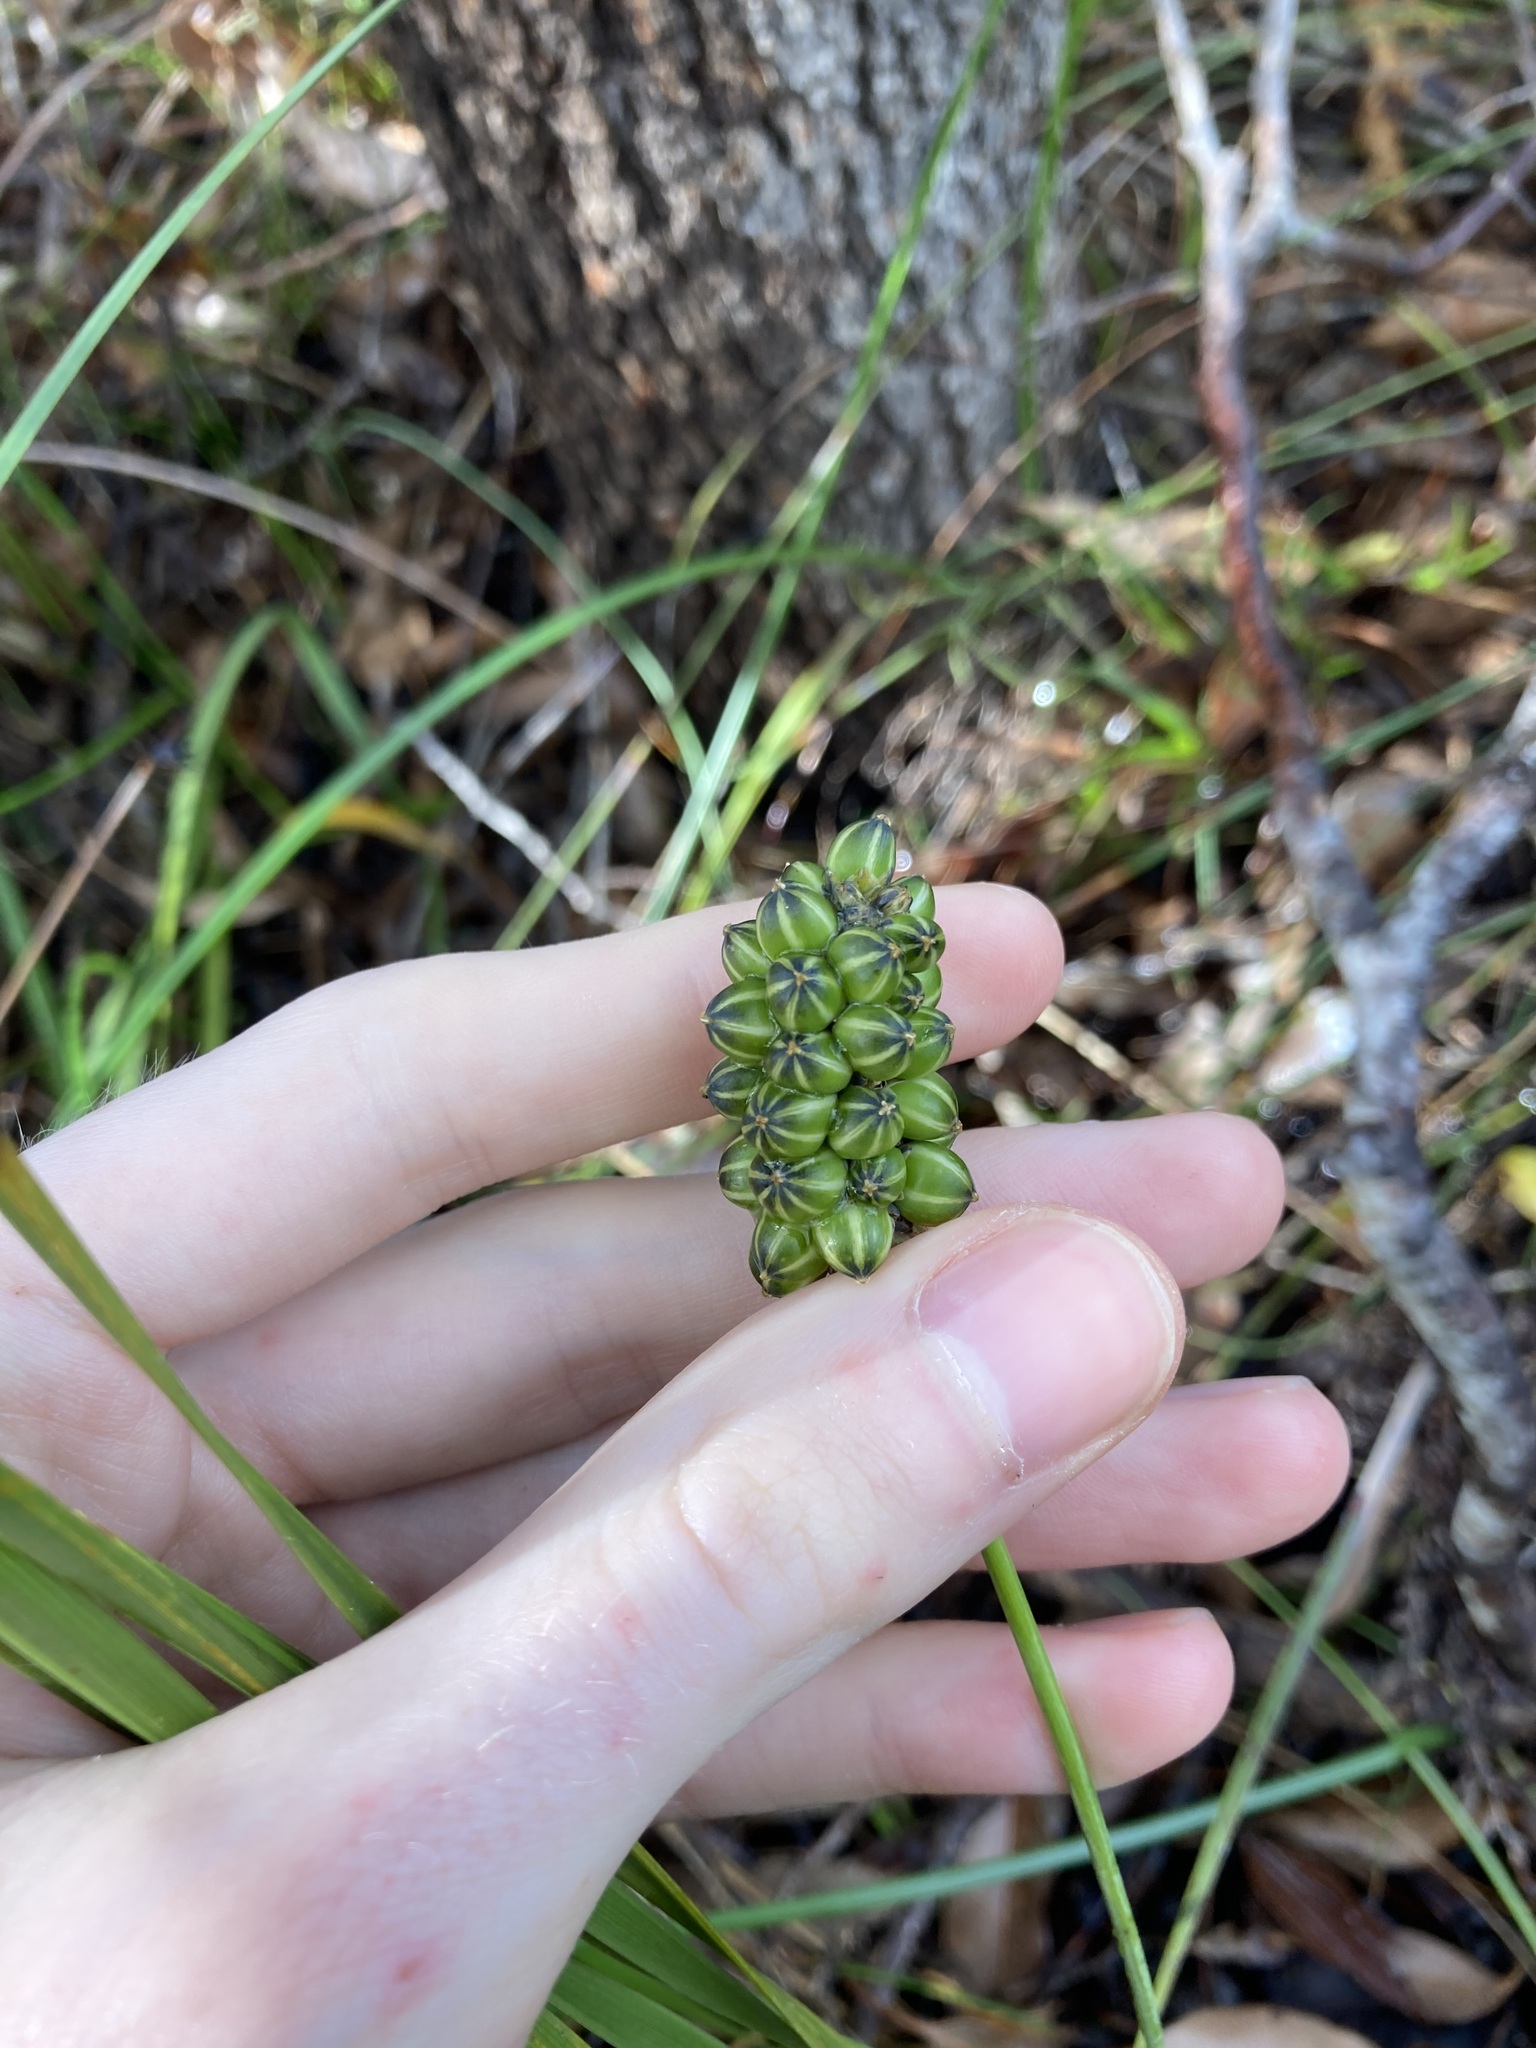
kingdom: Plantae
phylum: Tracheophyta
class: Liliopsida
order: Asparagales
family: Asparagaceae
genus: Lomandra
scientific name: Lomandra preissii
